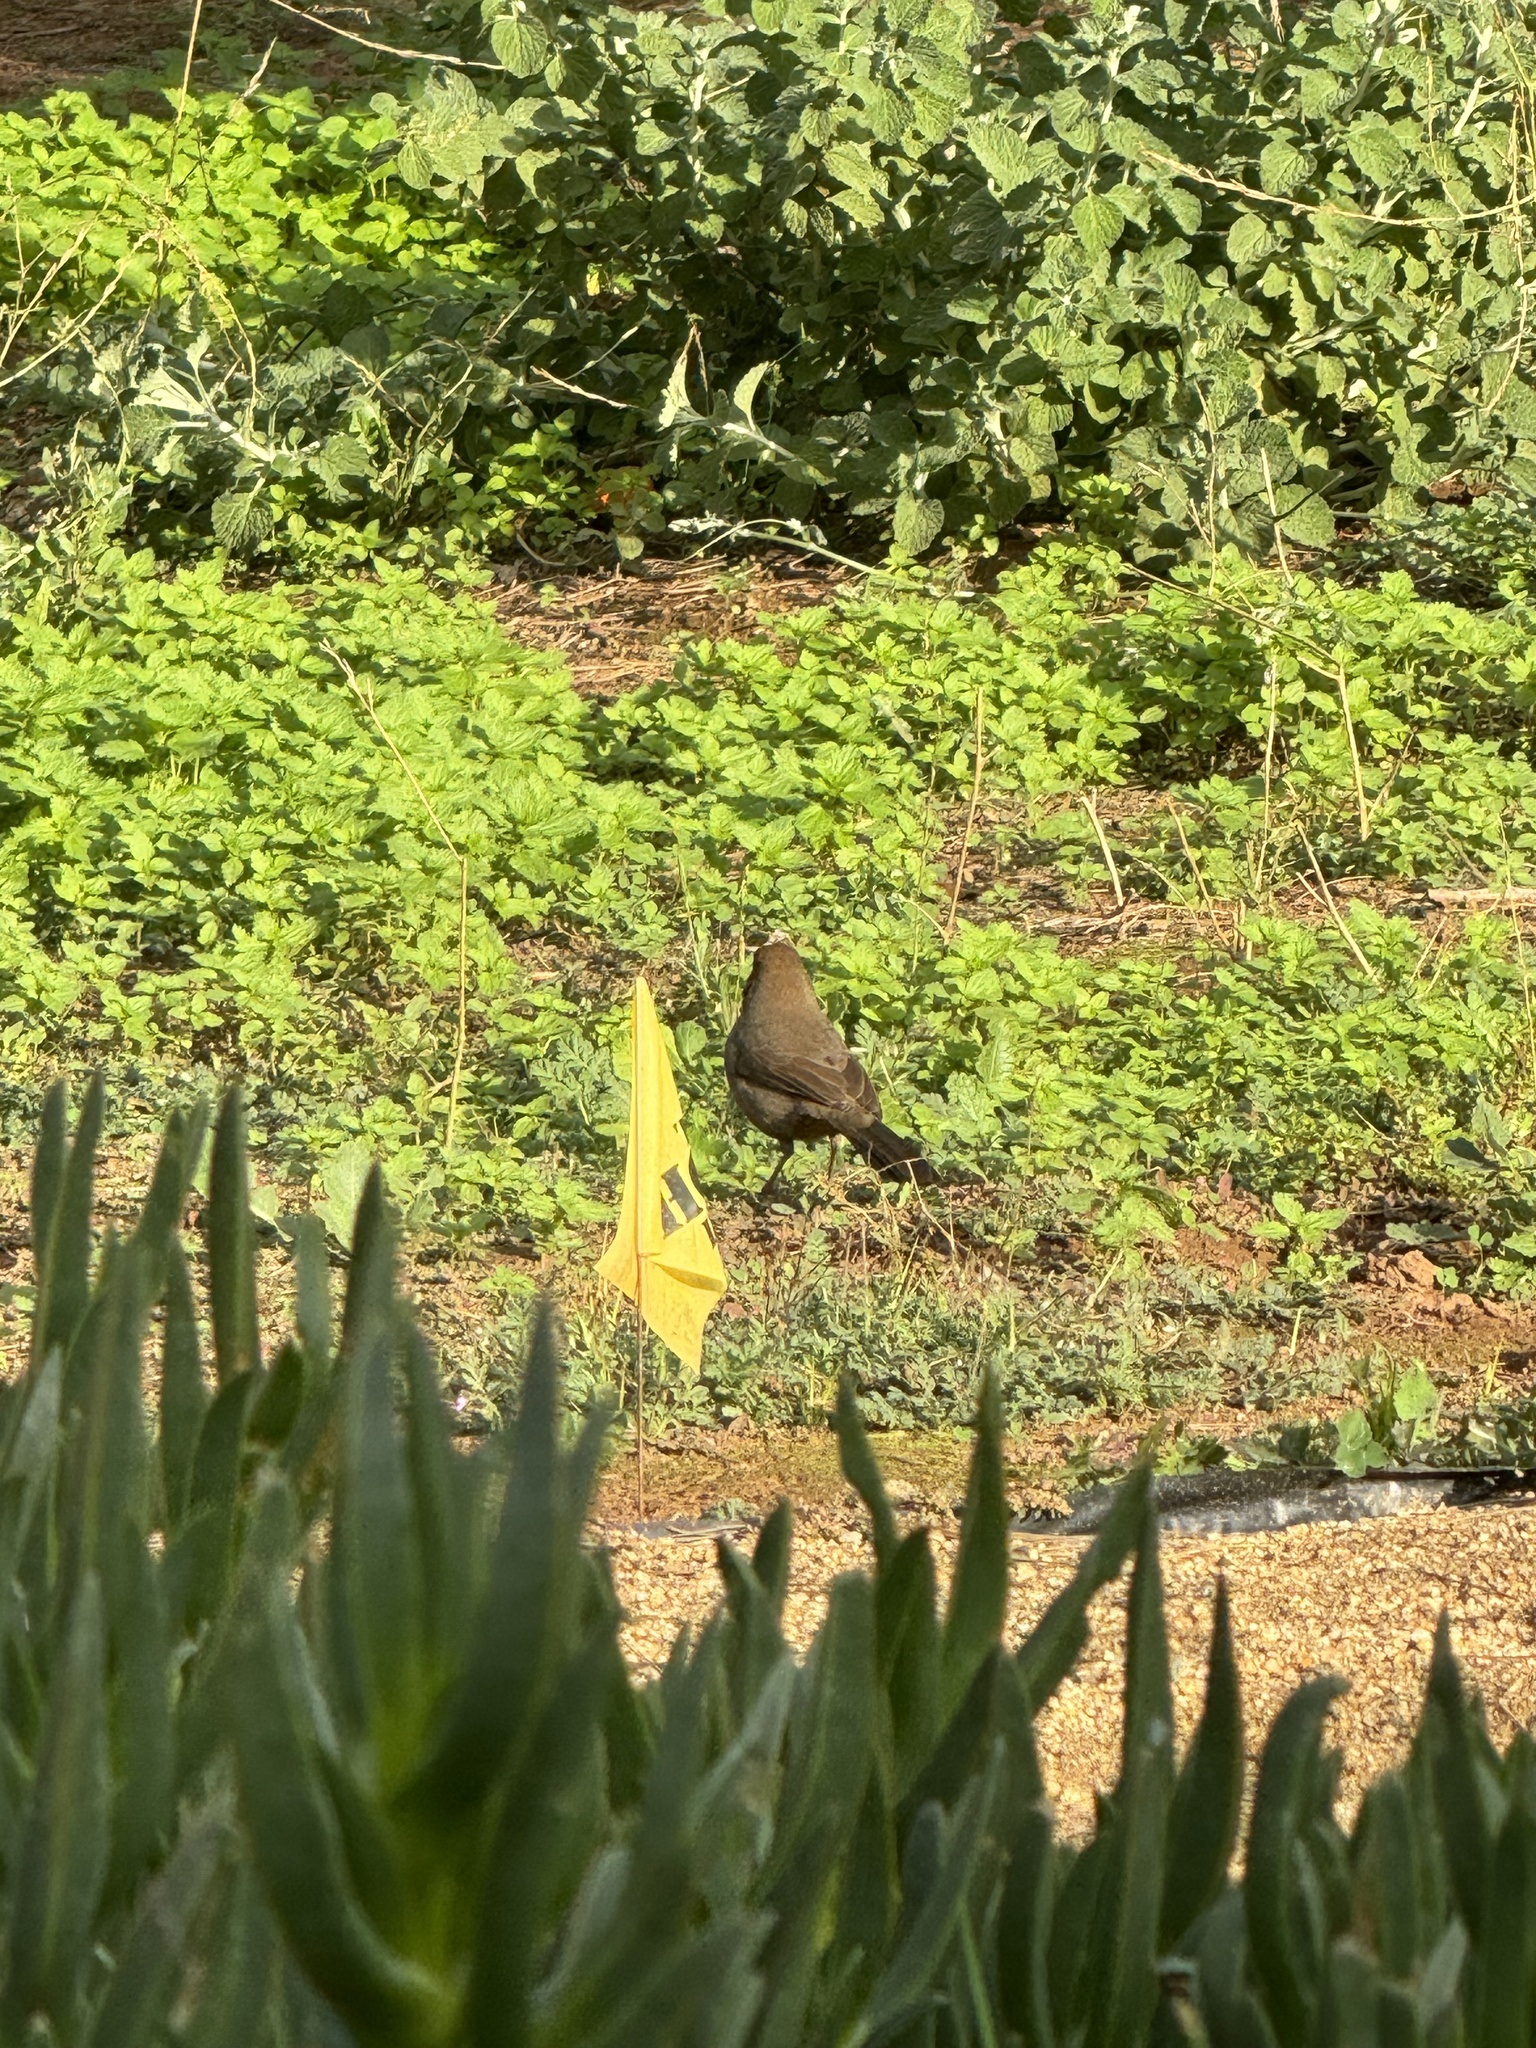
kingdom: Animalia
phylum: Chordata
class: Aves
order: Passeriformes
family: Passerellidae
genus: Melozone
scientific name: Melozone crissalis
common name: California towhee
